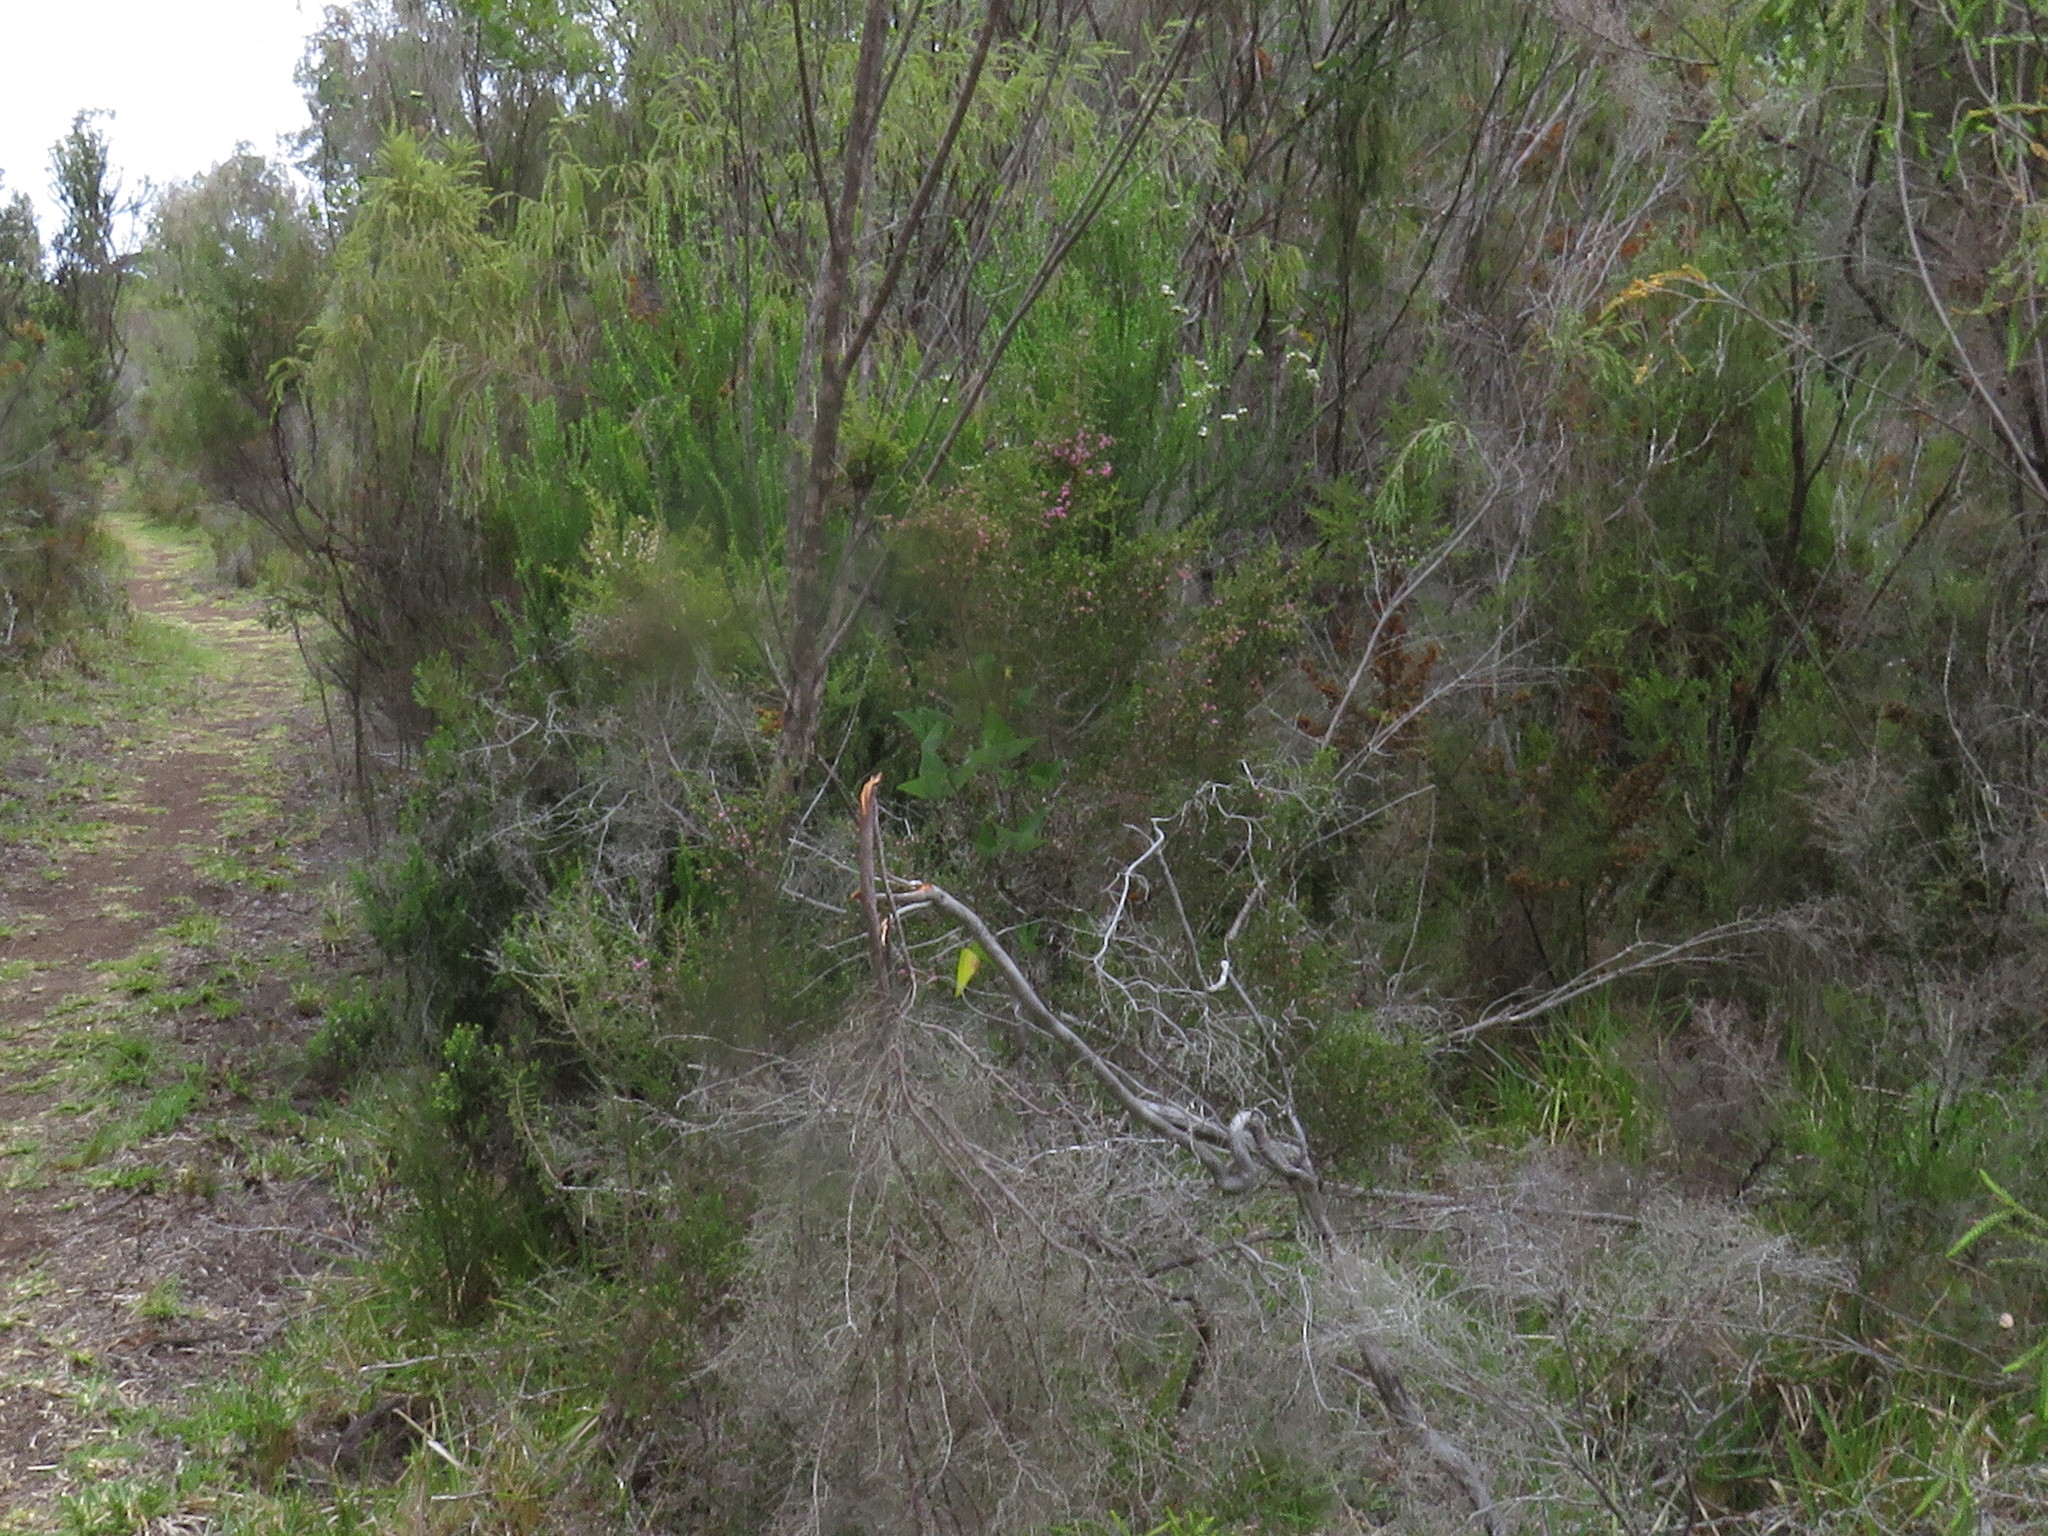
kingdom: Plantae
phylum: Tracheophyta
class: Magnoliopsida
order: Ericales
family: Ericaceae
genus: Erica
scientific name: Erica sparsa
